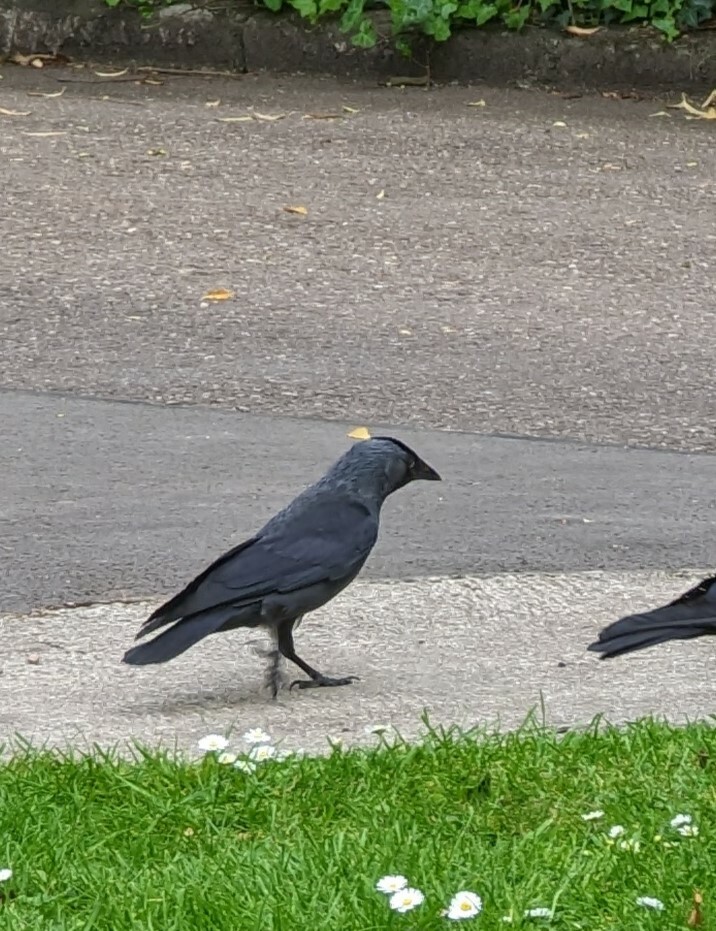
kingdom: Animalia
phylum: Chordata
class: Aves
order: Passeriformes
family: Corvidae
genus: Coloeus
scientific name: Coloeus monedula
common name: Western jackdaw
